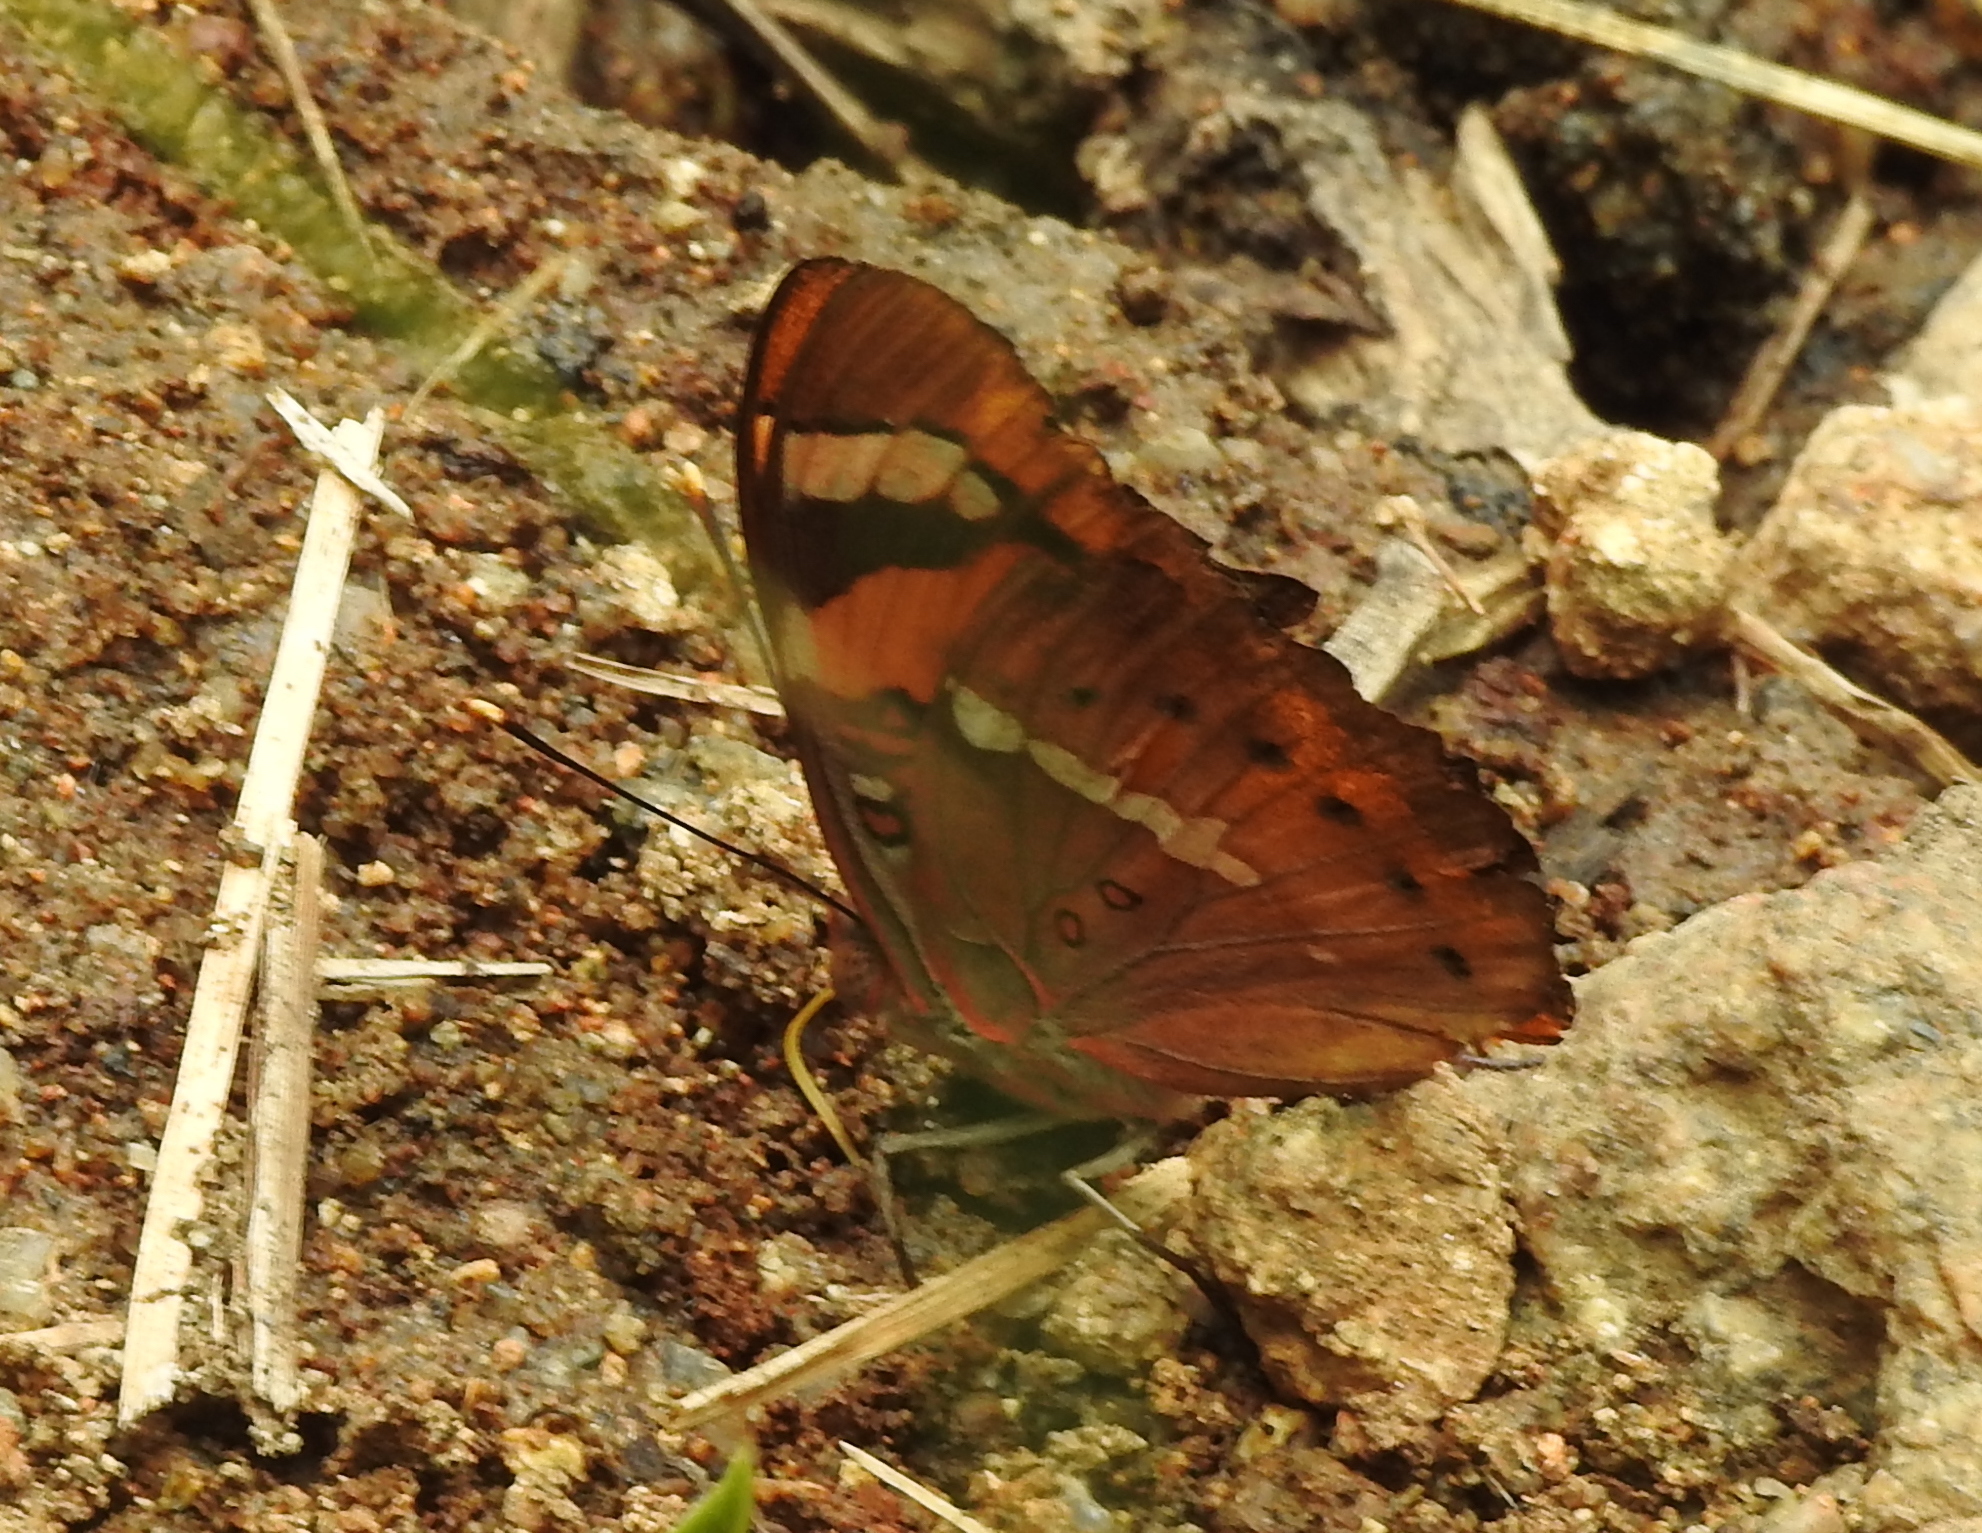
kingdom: Animalia
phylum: Arthropoda
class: Insecta
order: Lepidoptera
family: Nymphalidae
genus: Euthalia
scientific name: Euthalia nais
